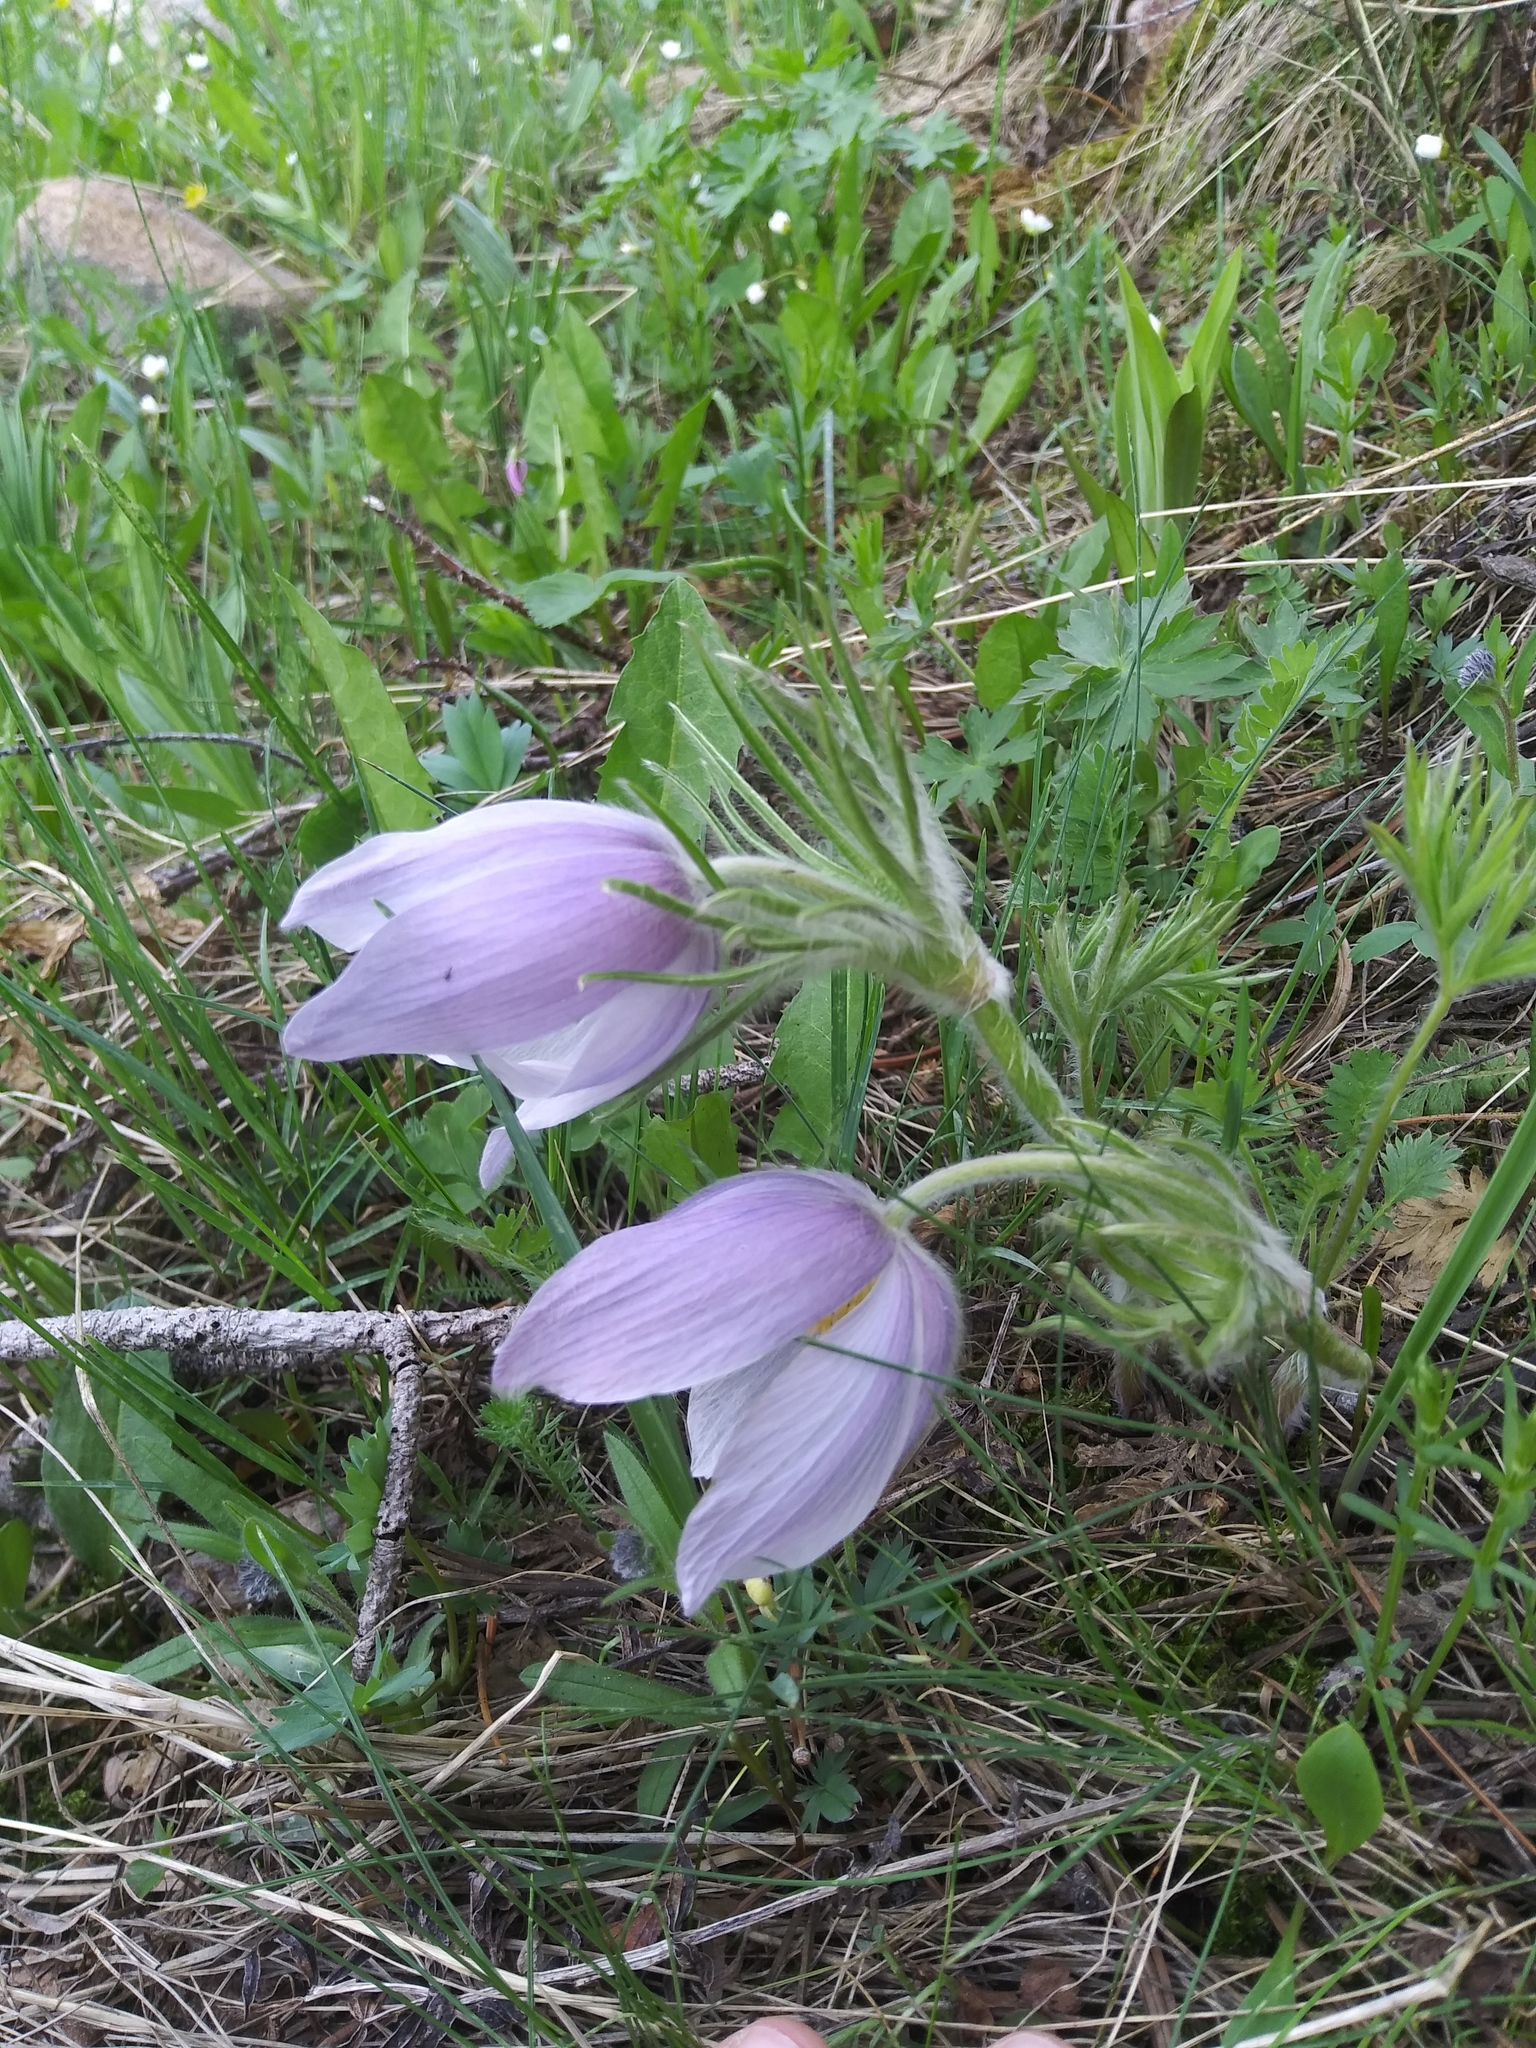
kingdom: Plantae
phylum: Tracheophyta
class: Magnoliopsida
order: Ranunculales
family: Ranunculaceae
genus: Pulsatilla
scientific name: Pulsatilla nuttalliana
